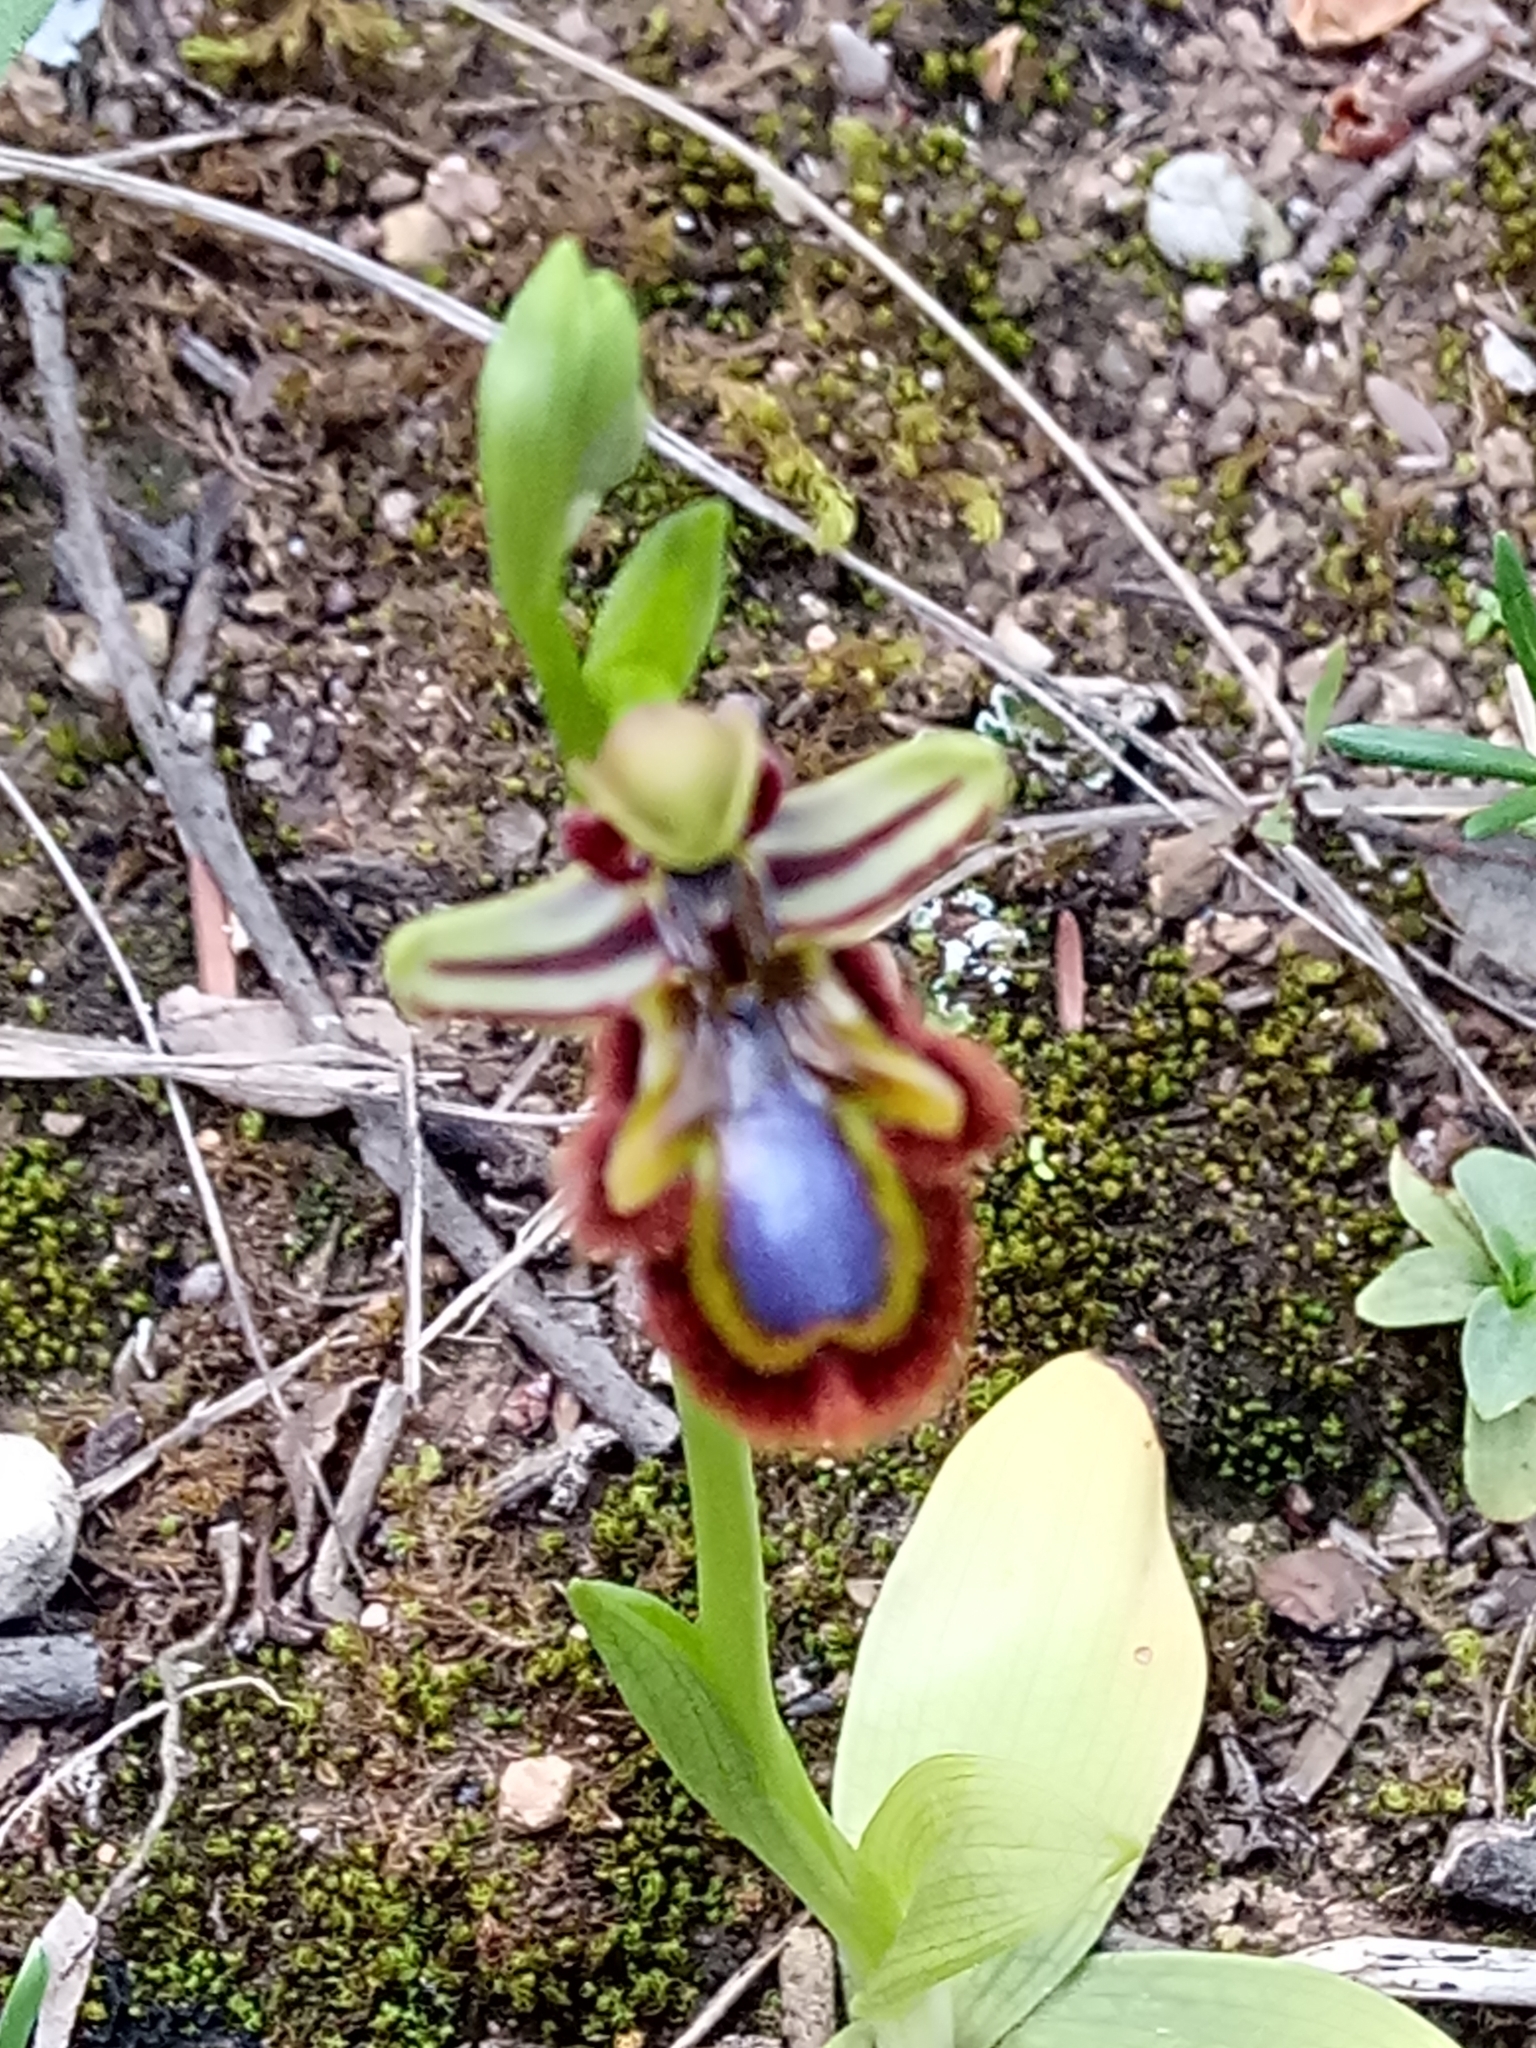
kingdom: Plantae
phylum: Tracheophyta
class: Liliopsida
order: Asparagales
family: Orchidaceae
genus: Ophrys
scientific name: Ophrys speculum
